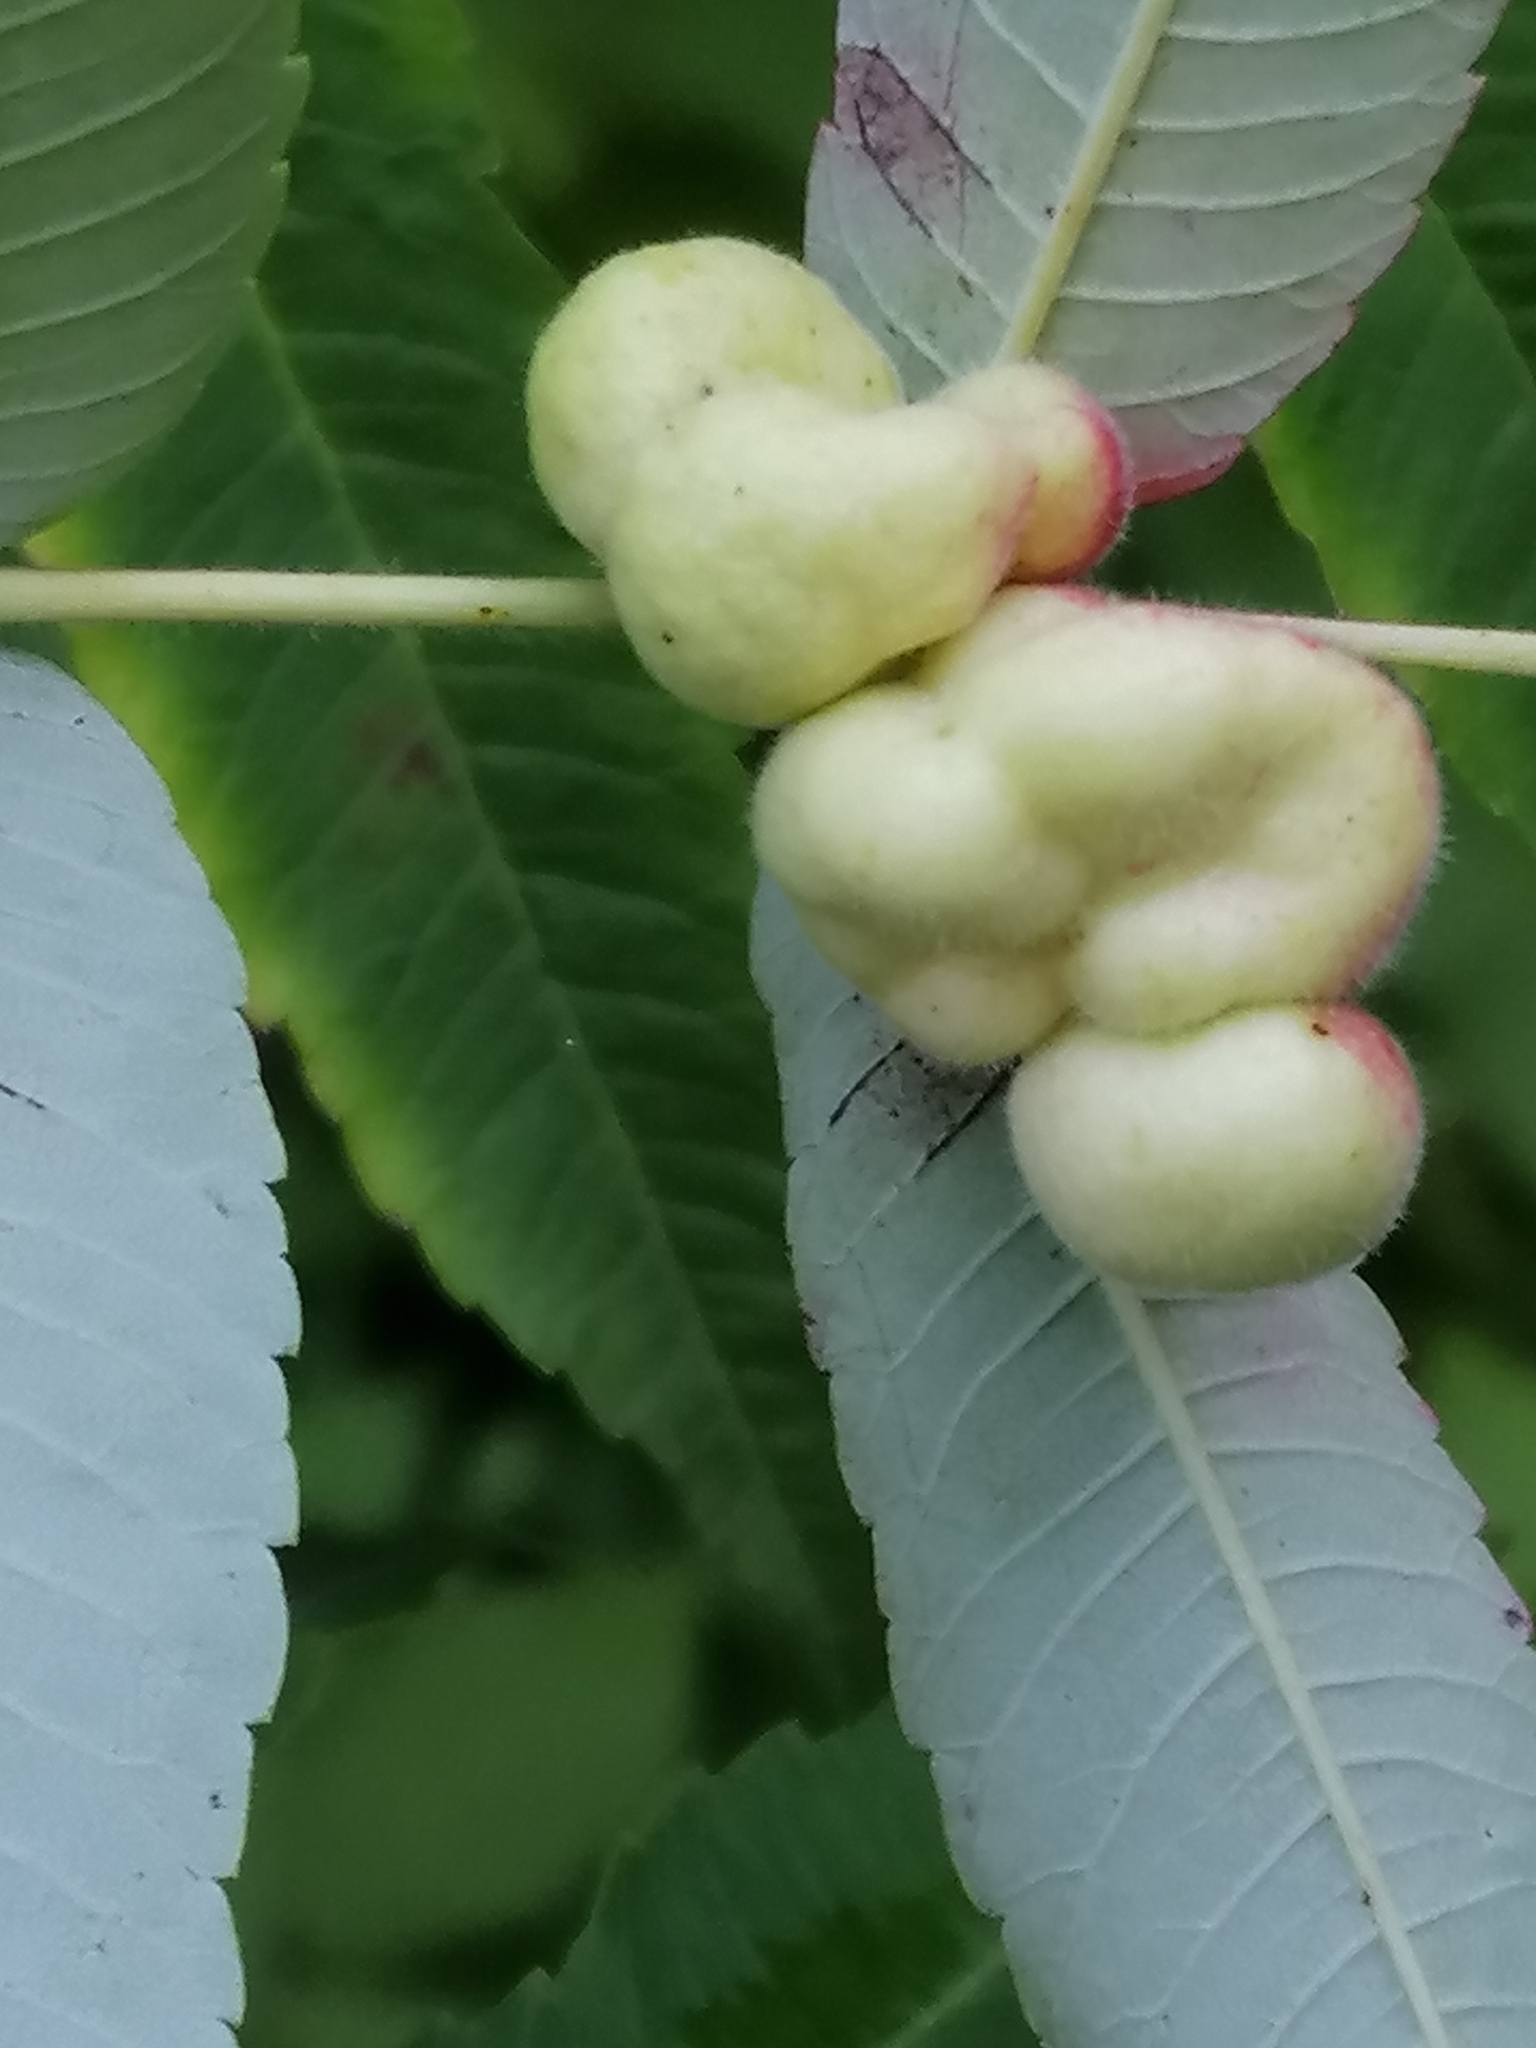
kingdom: Animalia
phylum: Arthropoda
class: Insecta
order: Hemiptera
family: Aphididae
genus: Melaphis
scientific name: Melaphis rhois
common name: Sumac gall aphid
